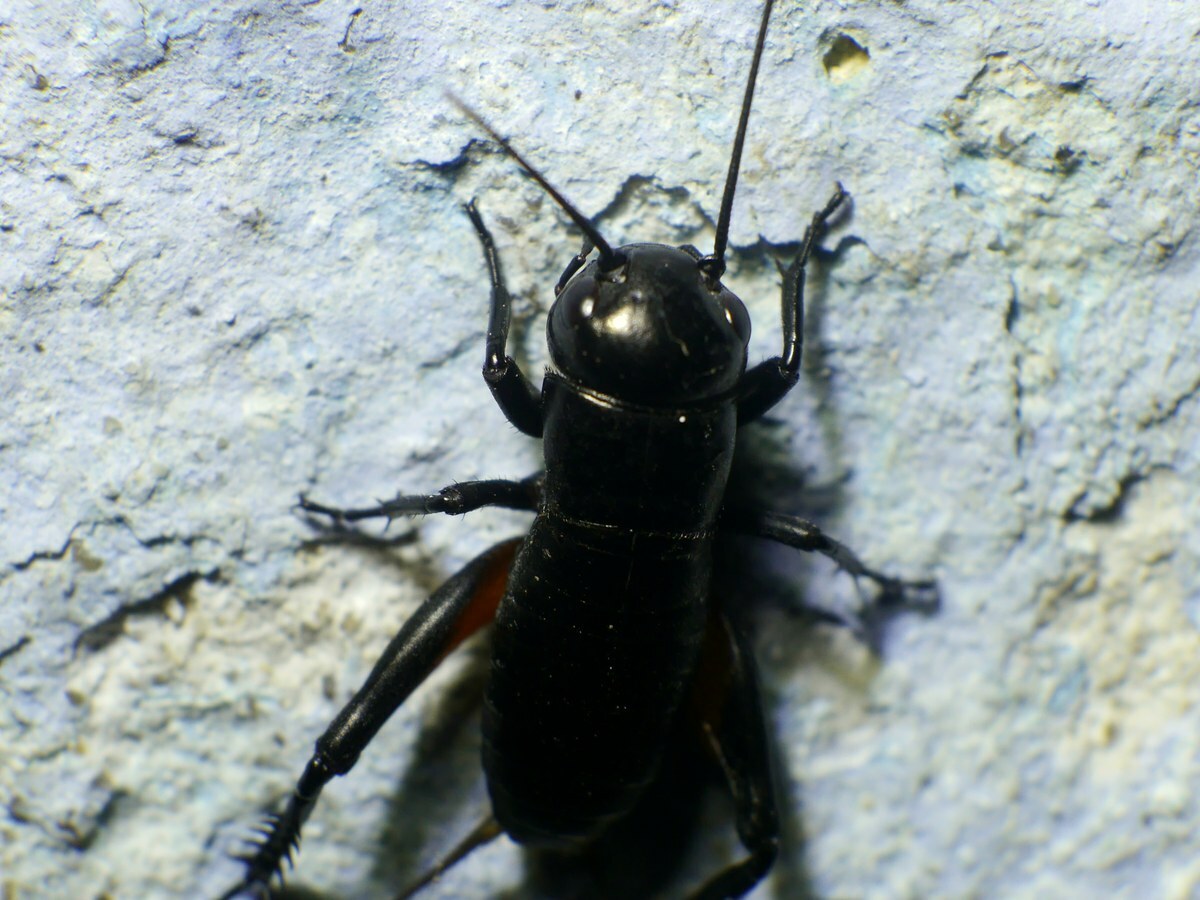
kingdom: Animalia
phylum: Arthropoda
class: Insecta
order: Orthoptera
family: Gryllidae
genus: Gryllus
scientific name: Gryllus campestris
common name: Field cricket
